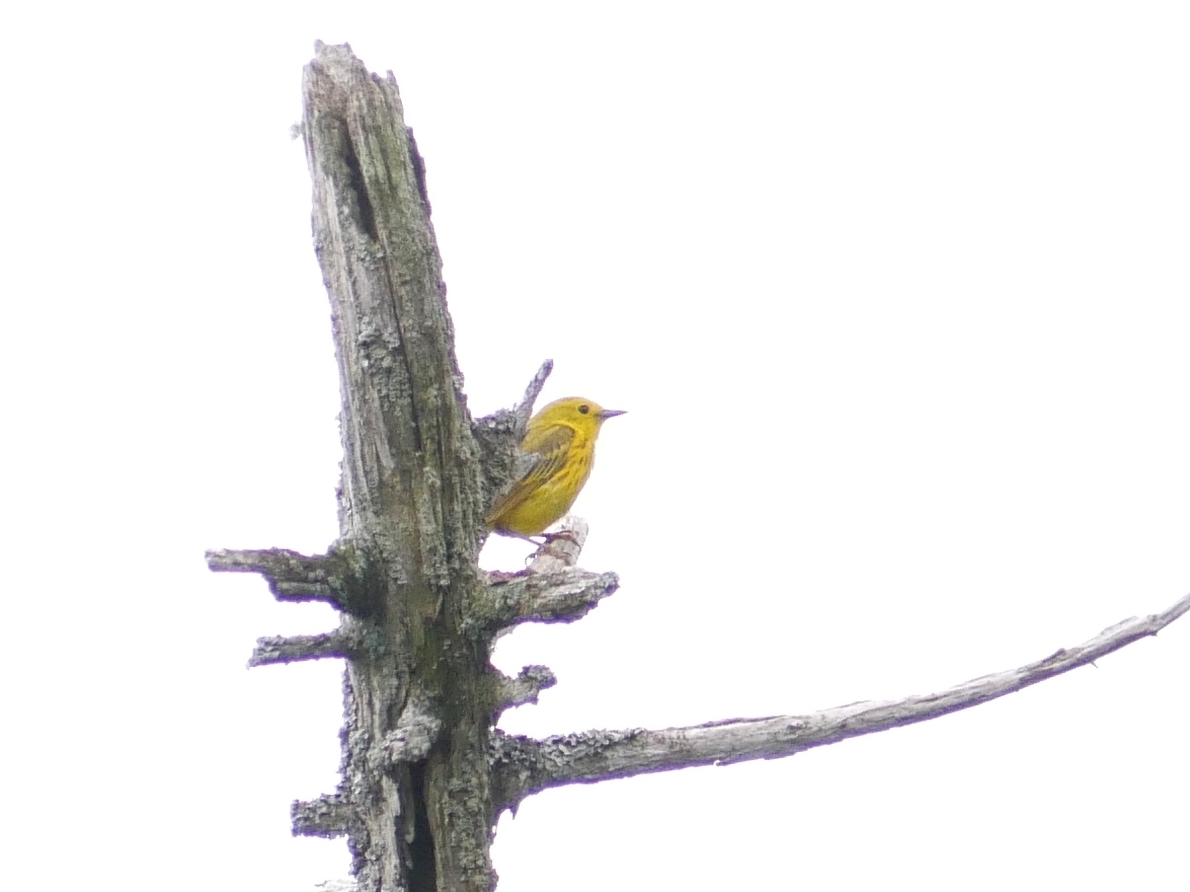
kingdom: Animalia
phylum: Chordata
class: Aves
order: Passeriformes
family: Parulidae
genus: Setophaga
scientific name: Setophaga petechia
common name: Yellow warbler
